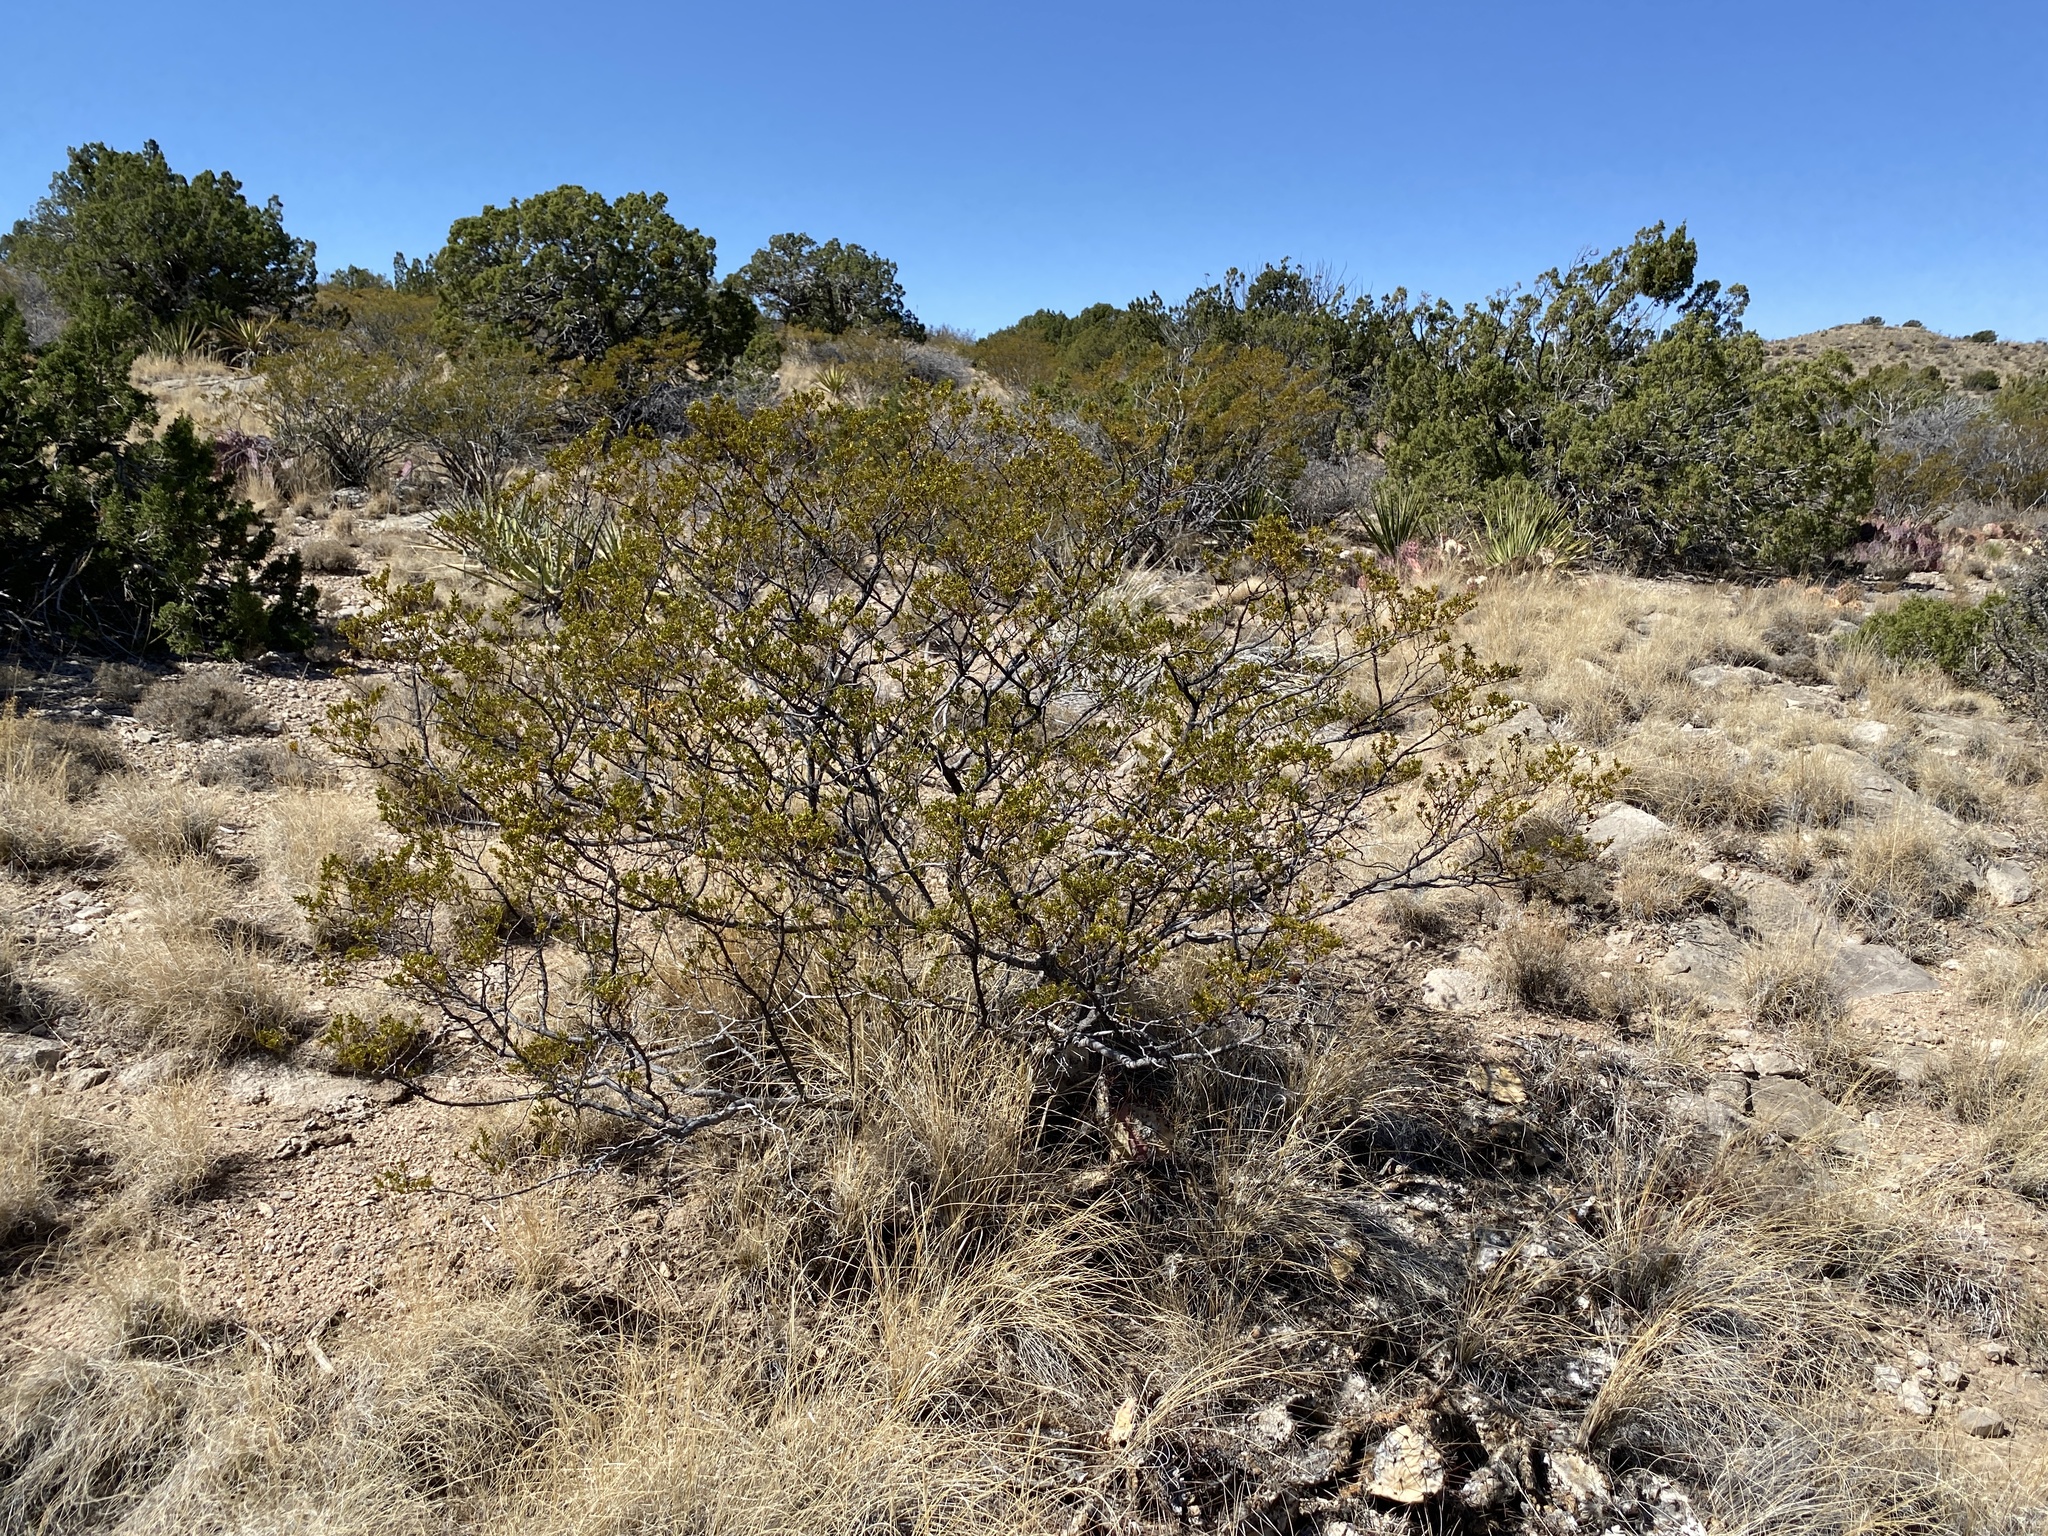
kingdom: Plantae
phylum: Tracheophyta
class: Magnoliopsida
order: Zygophyllales
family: Zygophyllaceae
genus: Larrea
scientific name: Larrea tridentata
